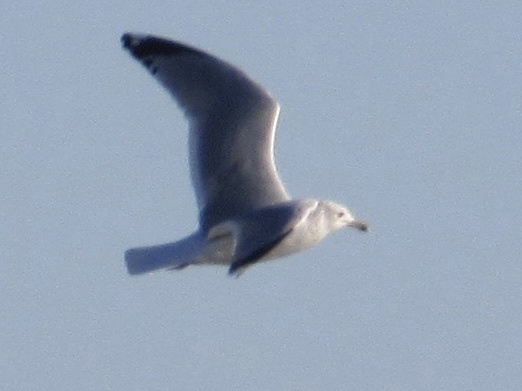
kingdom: Animalia
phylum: Chordata
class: Aves
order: Charadriiformes
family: Laridae
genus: Larus
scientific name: Larus delawarensis
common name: Ring-billed gull
